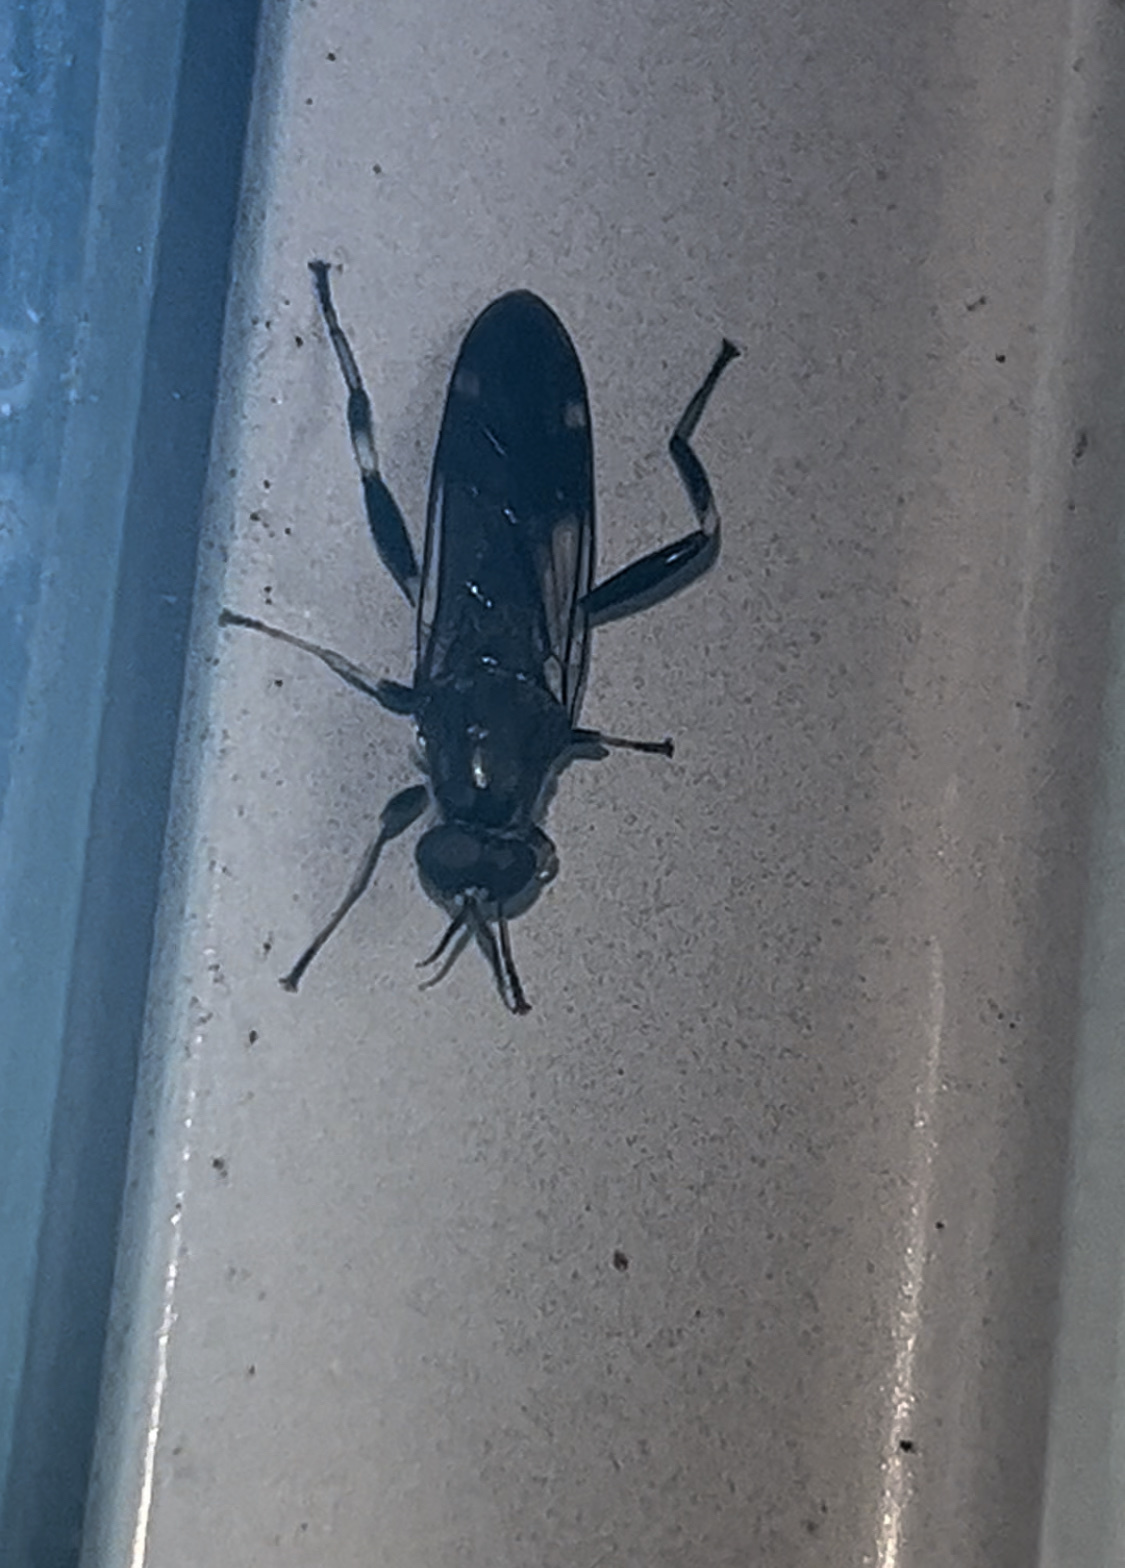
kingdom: Animalia
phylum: Arthropoda
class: Insecta
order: Diptera
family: Stratiomyidae
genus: Exaireta
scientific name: Exaireta spinigera
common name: Blue soldier fly
